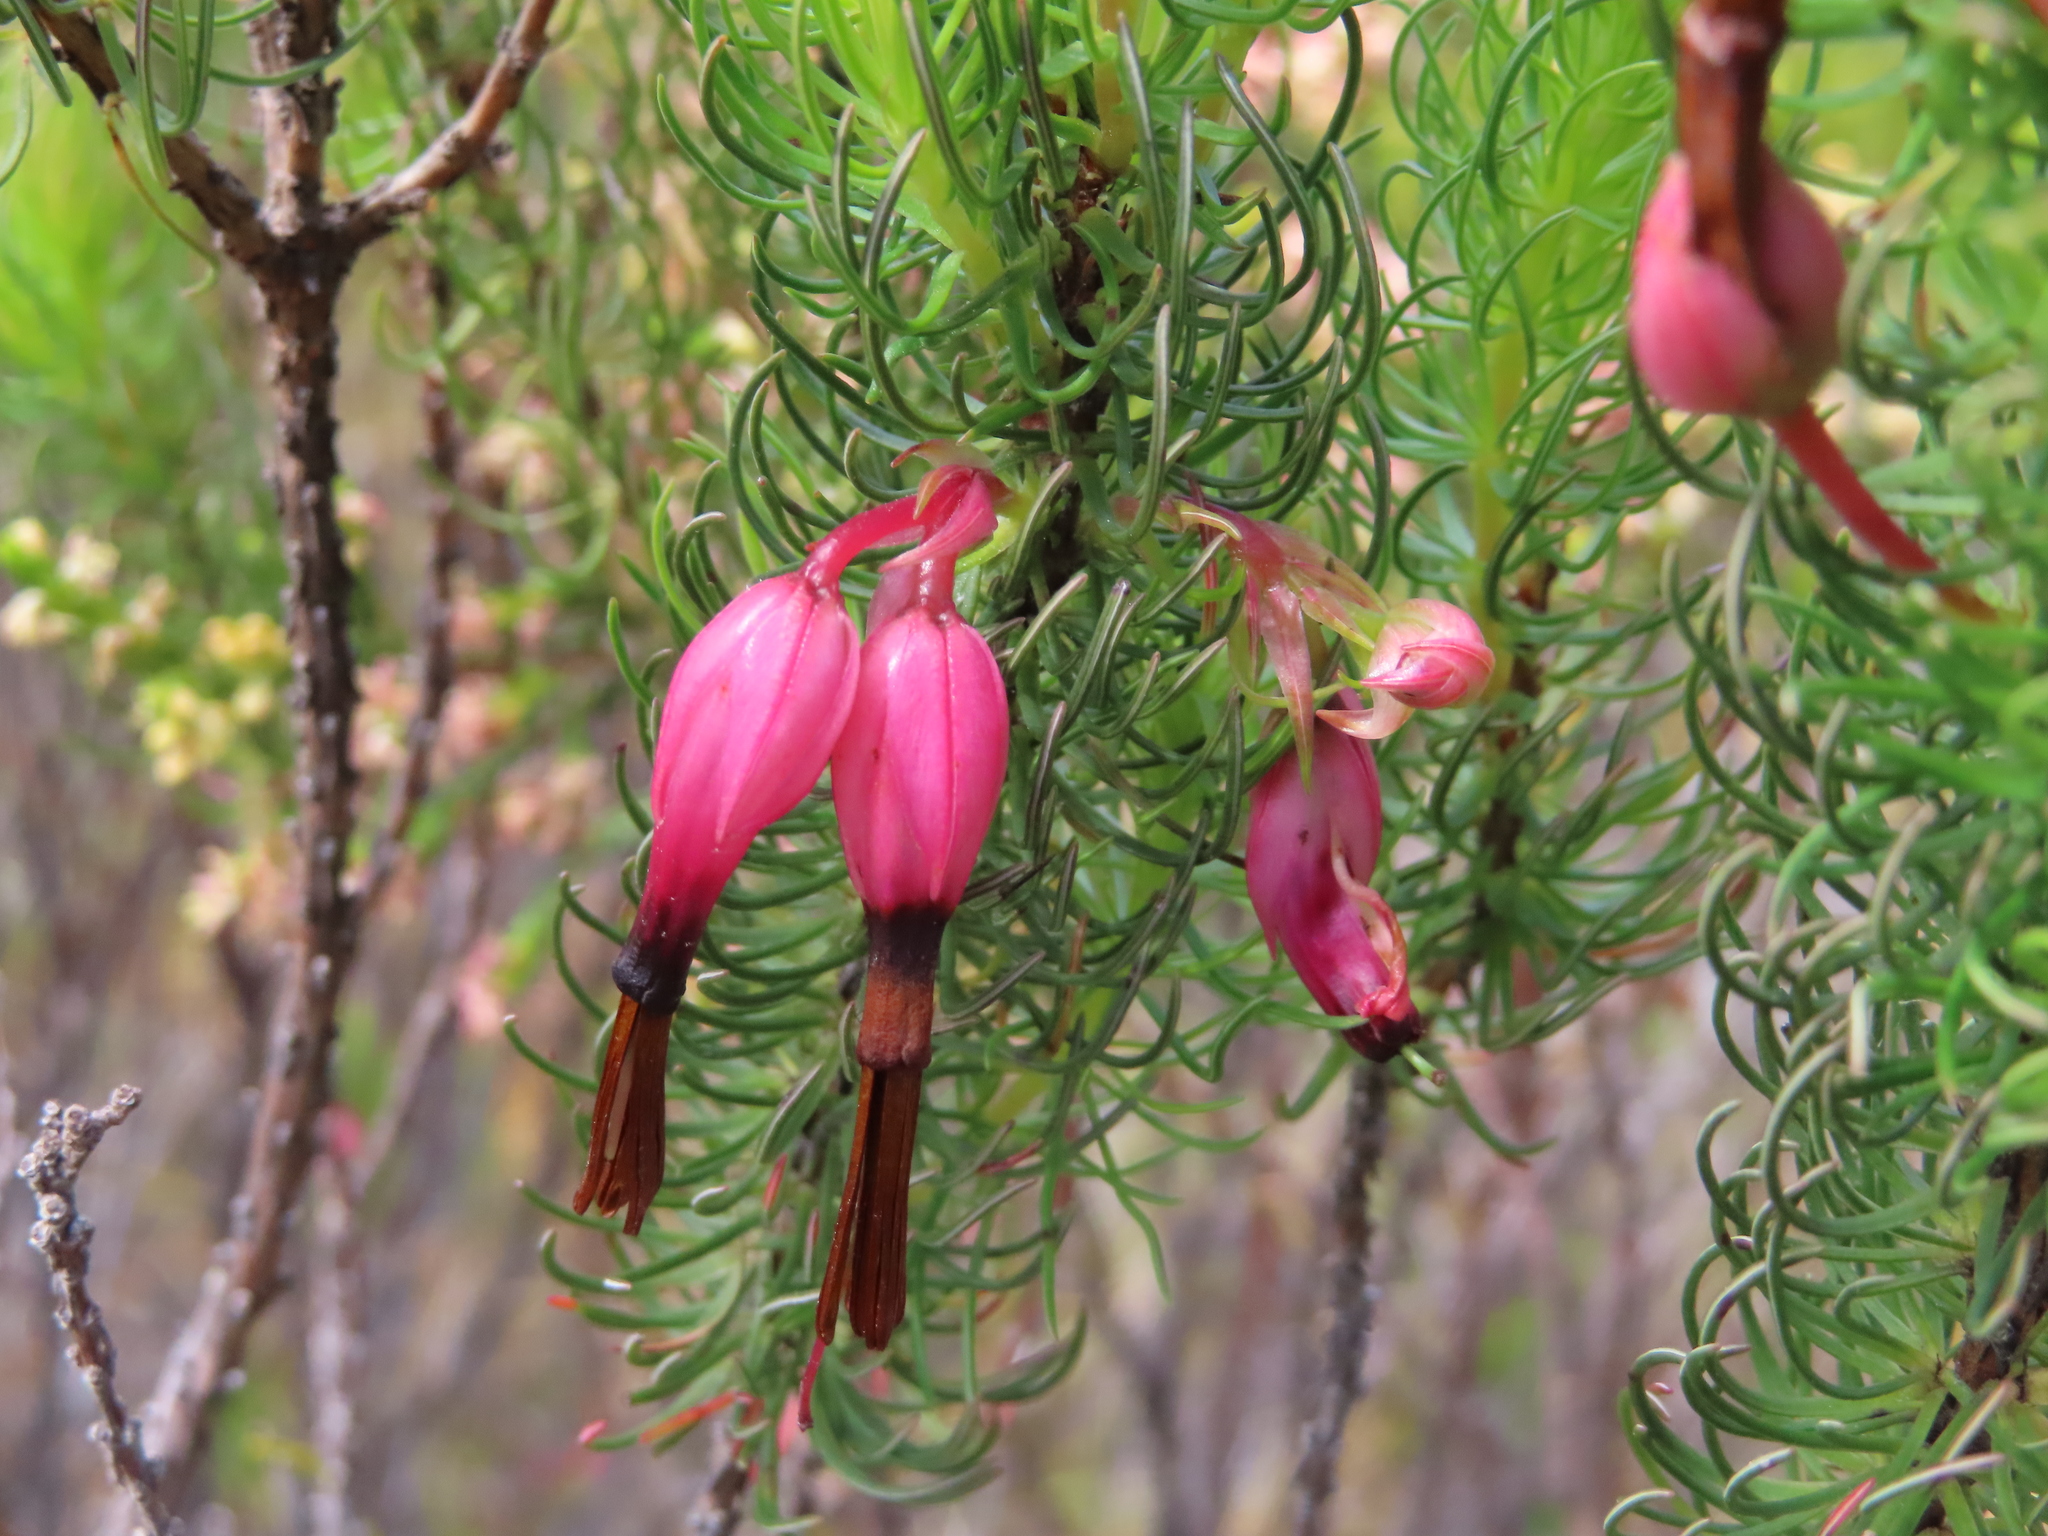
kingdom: Plantae
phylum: Tracheophyta
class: Magnoliopsida
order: Ericales
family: Ericaceae
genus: Erica
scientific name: Erica plukenetii
